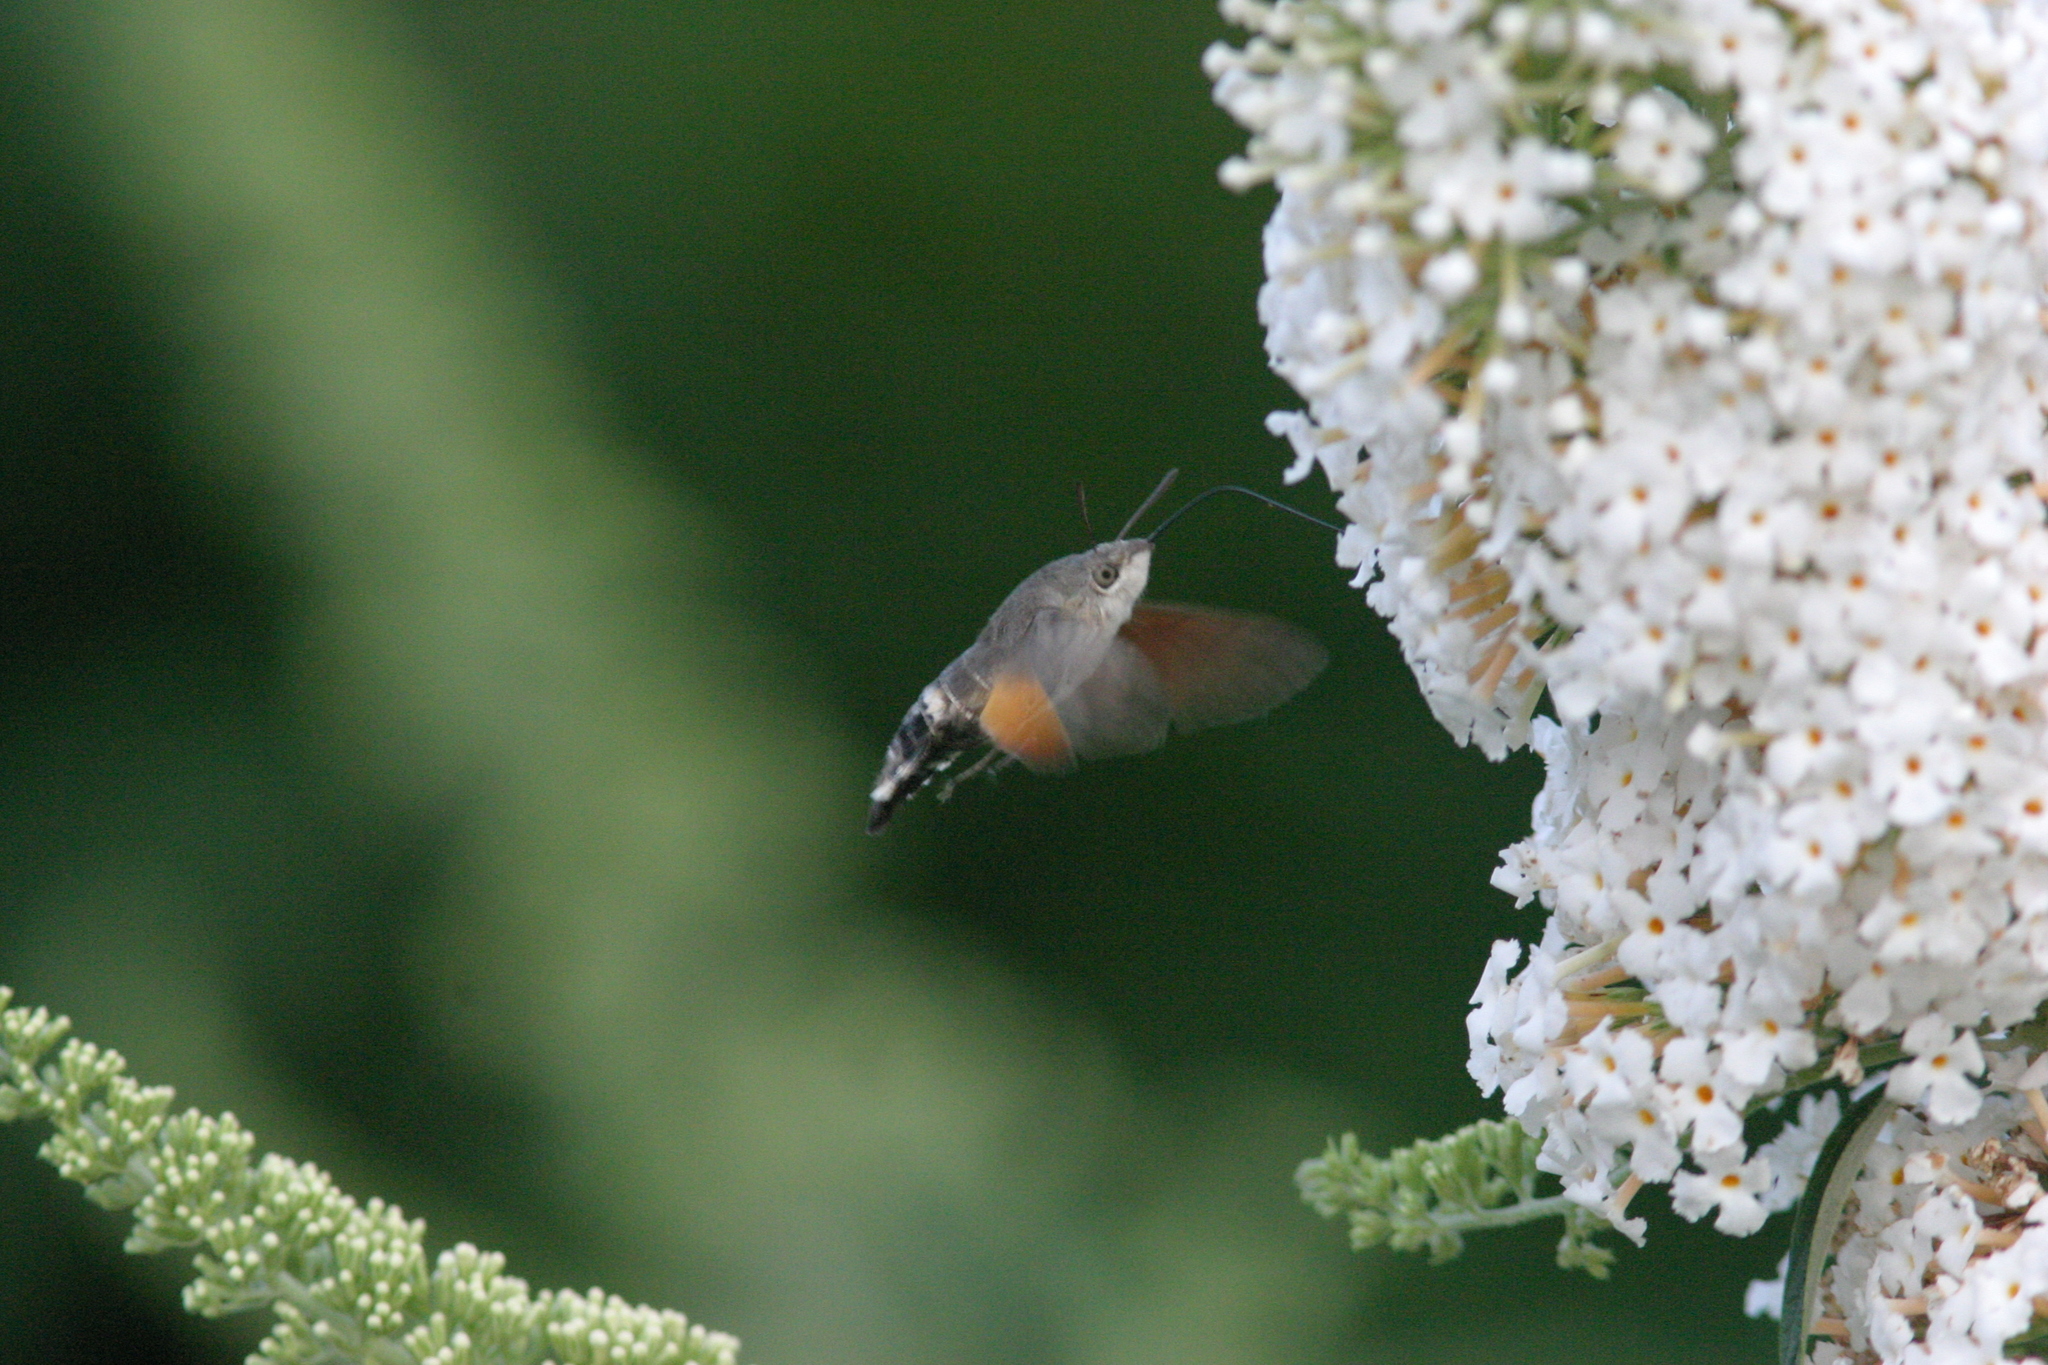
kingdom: Animalia
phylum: Arthropoda
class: Insecta
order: Lepidoptera
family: Sphingidae
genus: Macroglossum
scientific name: Macroglossum stellatarum
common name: Humming-bird hawk-moth
